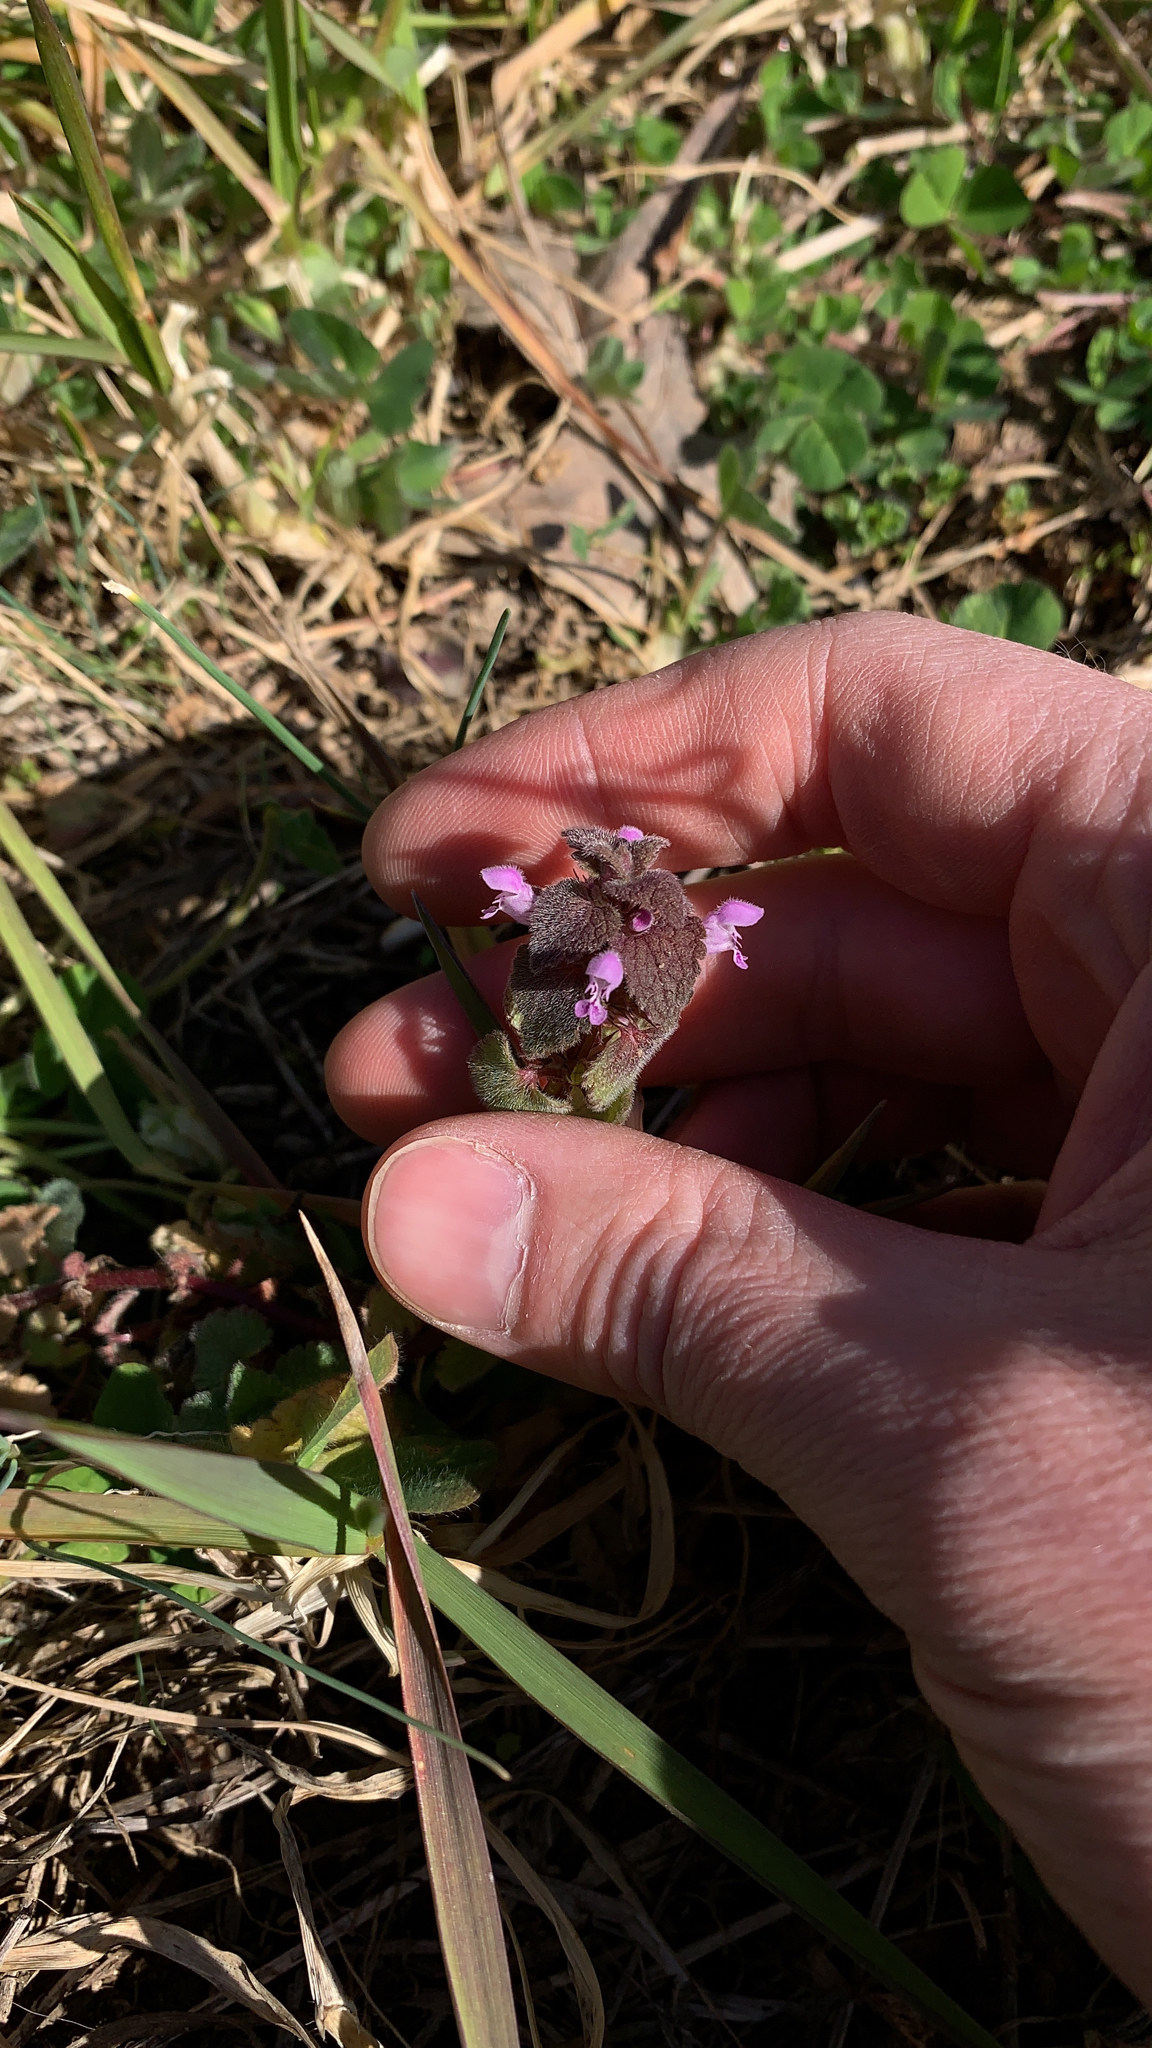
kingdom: Plantae
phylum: Tracheophyta
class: Magnoliopsida
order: Lamiales
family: Lamiaceae
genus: Lamium
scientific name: Lamium purpureum
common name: Red dead-nettle
